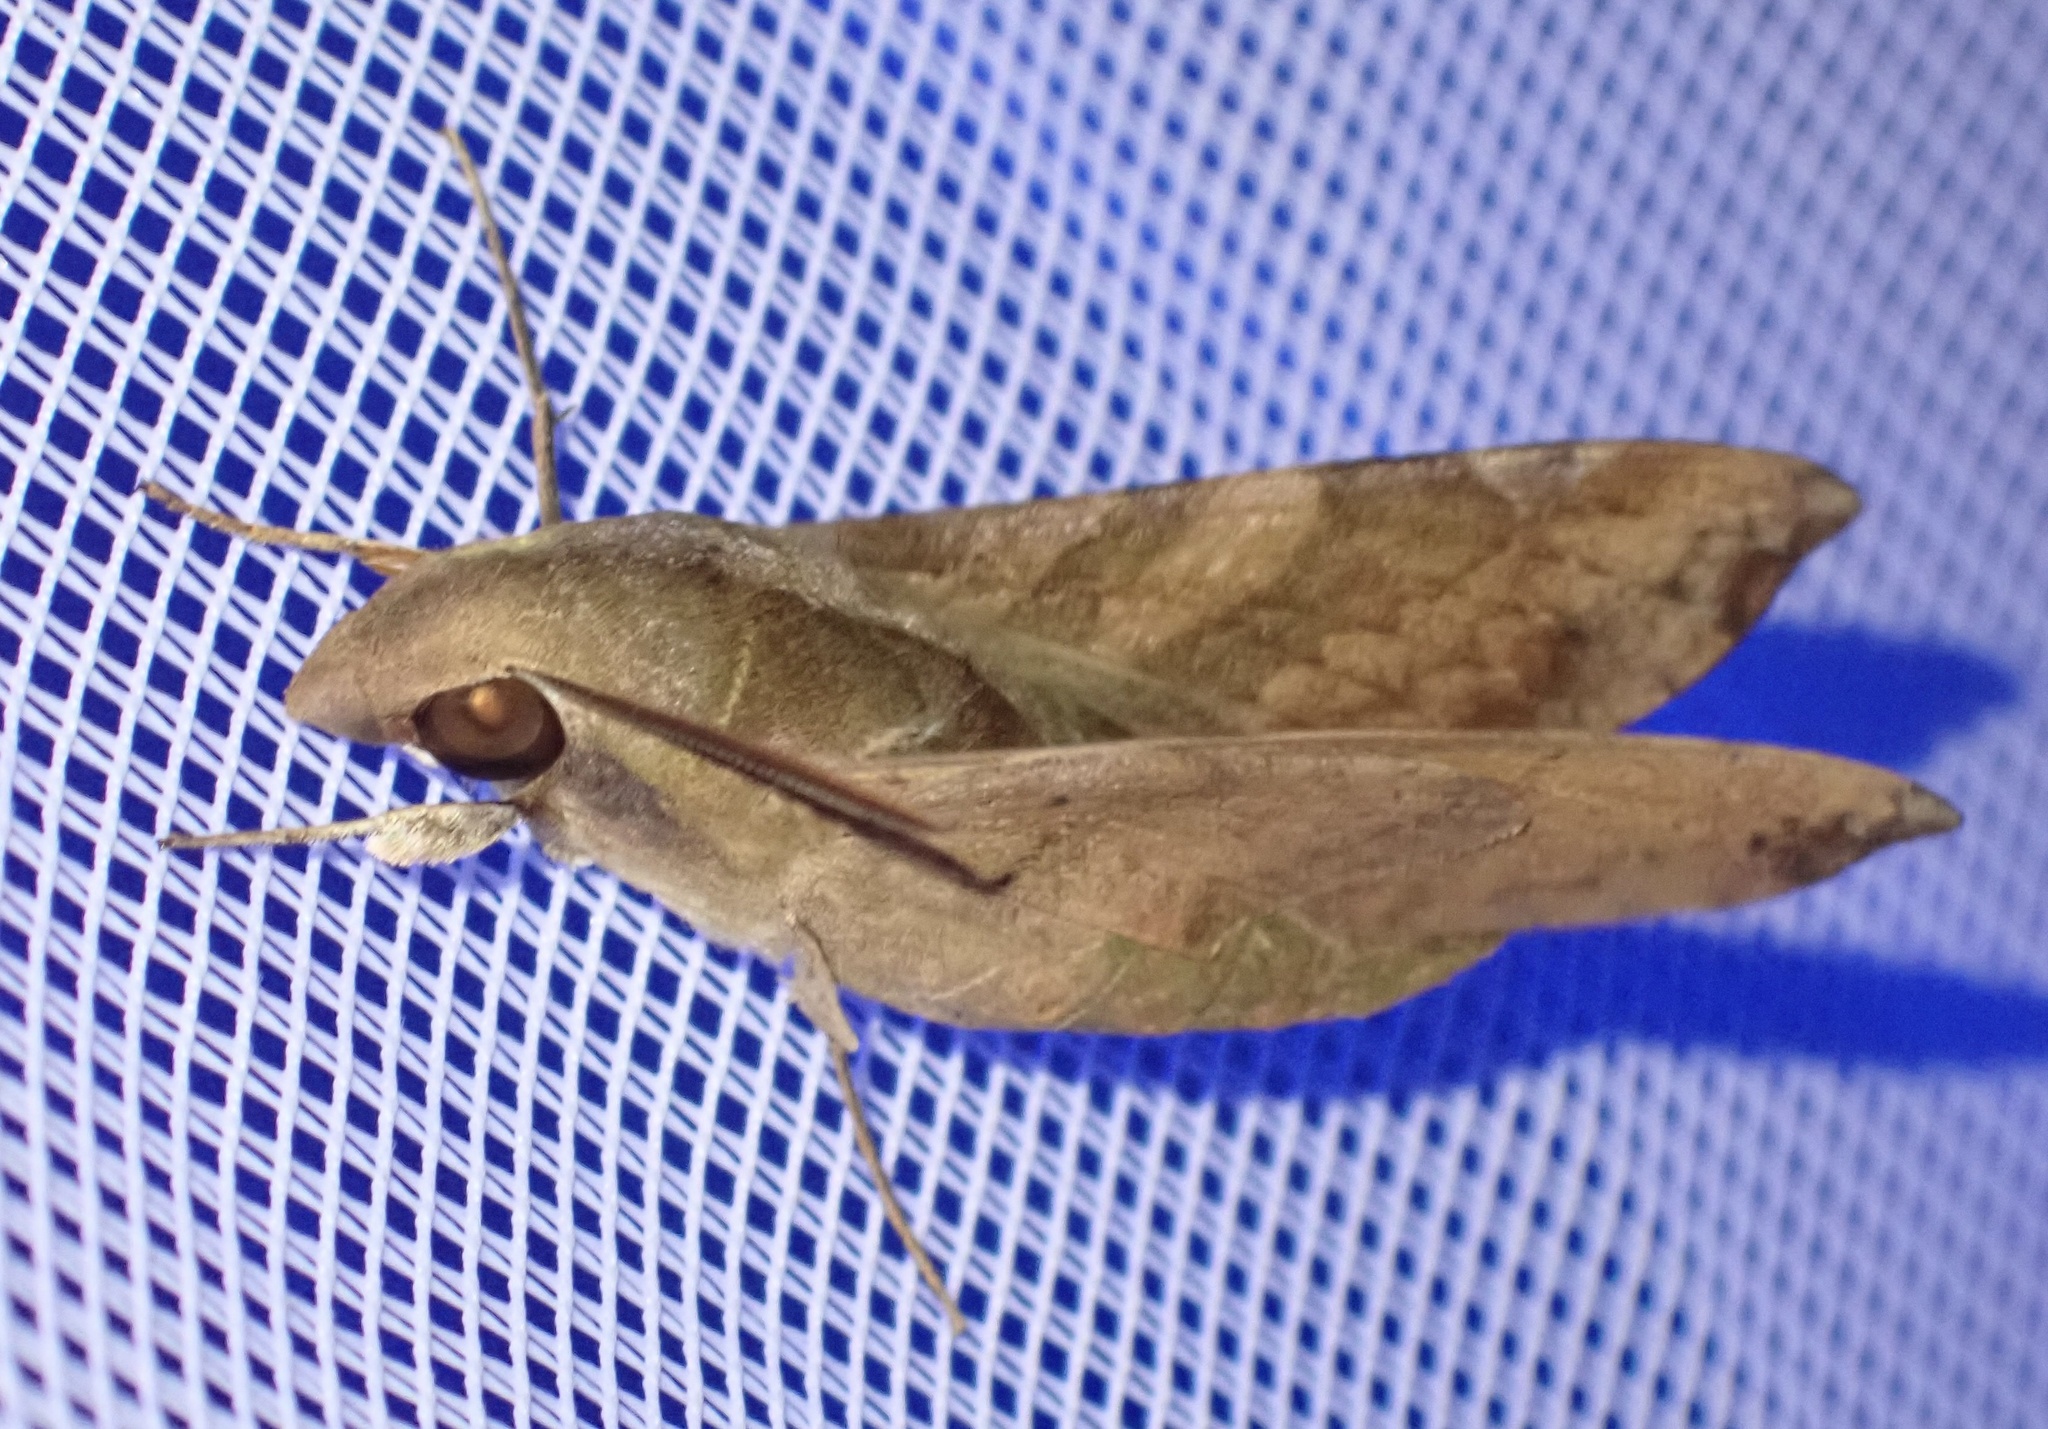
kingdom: Animalia
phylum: Arthropoda
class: Insecta
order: Lepidoptera
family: Sphingidae
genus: Temnora
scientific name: Temnora fumosa
